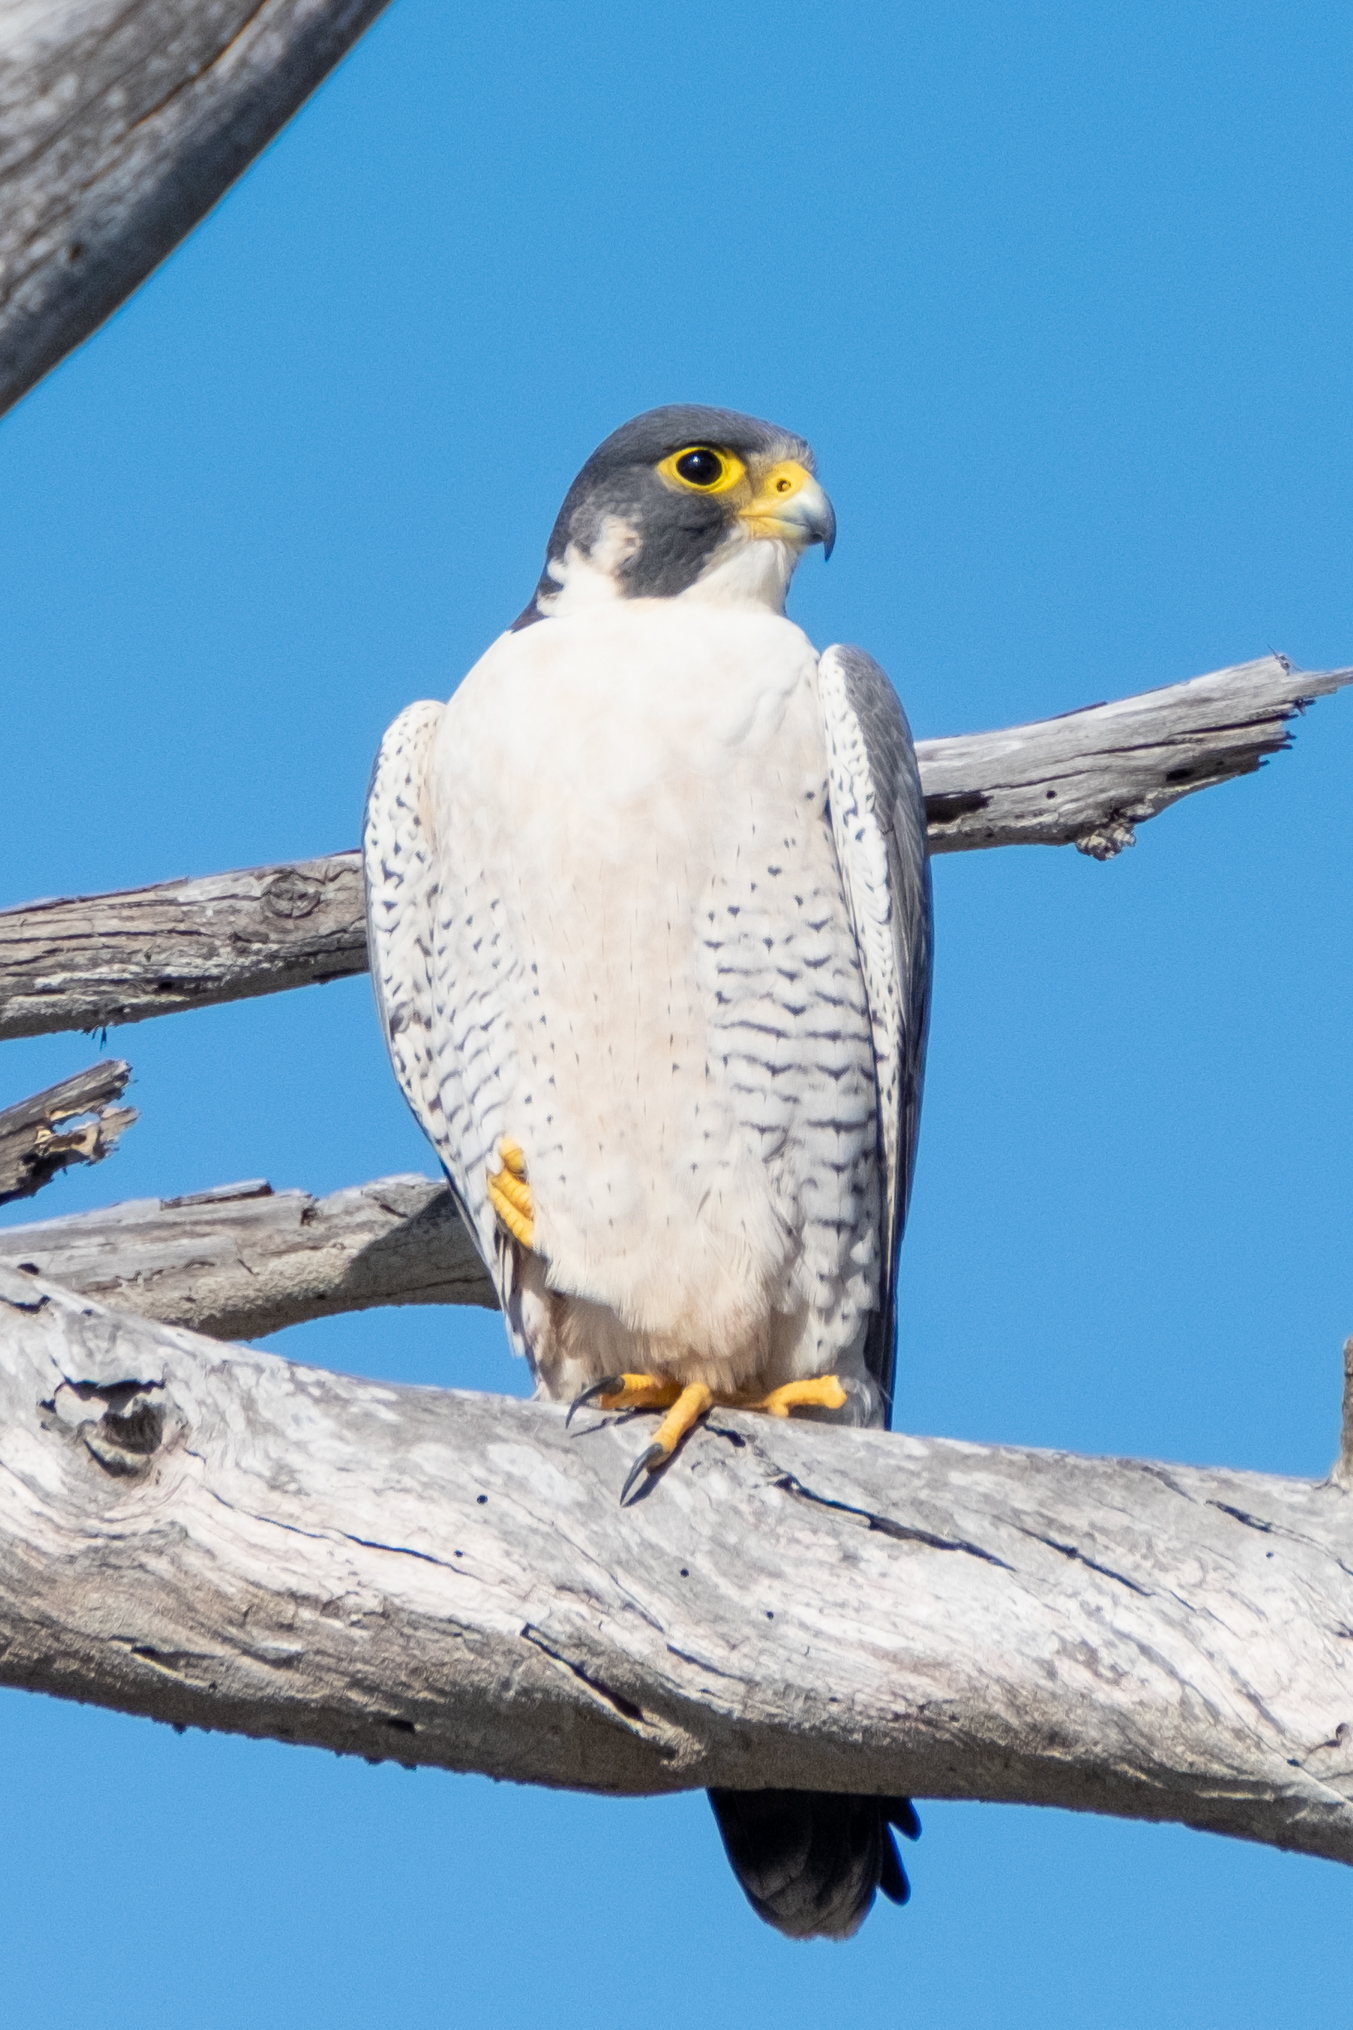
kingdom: Animalia
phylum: Chordata
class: Aves
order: Falconiformes
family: Falconidae
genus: Falco
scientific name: Falco peregrinus
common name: Peregrine falcon
